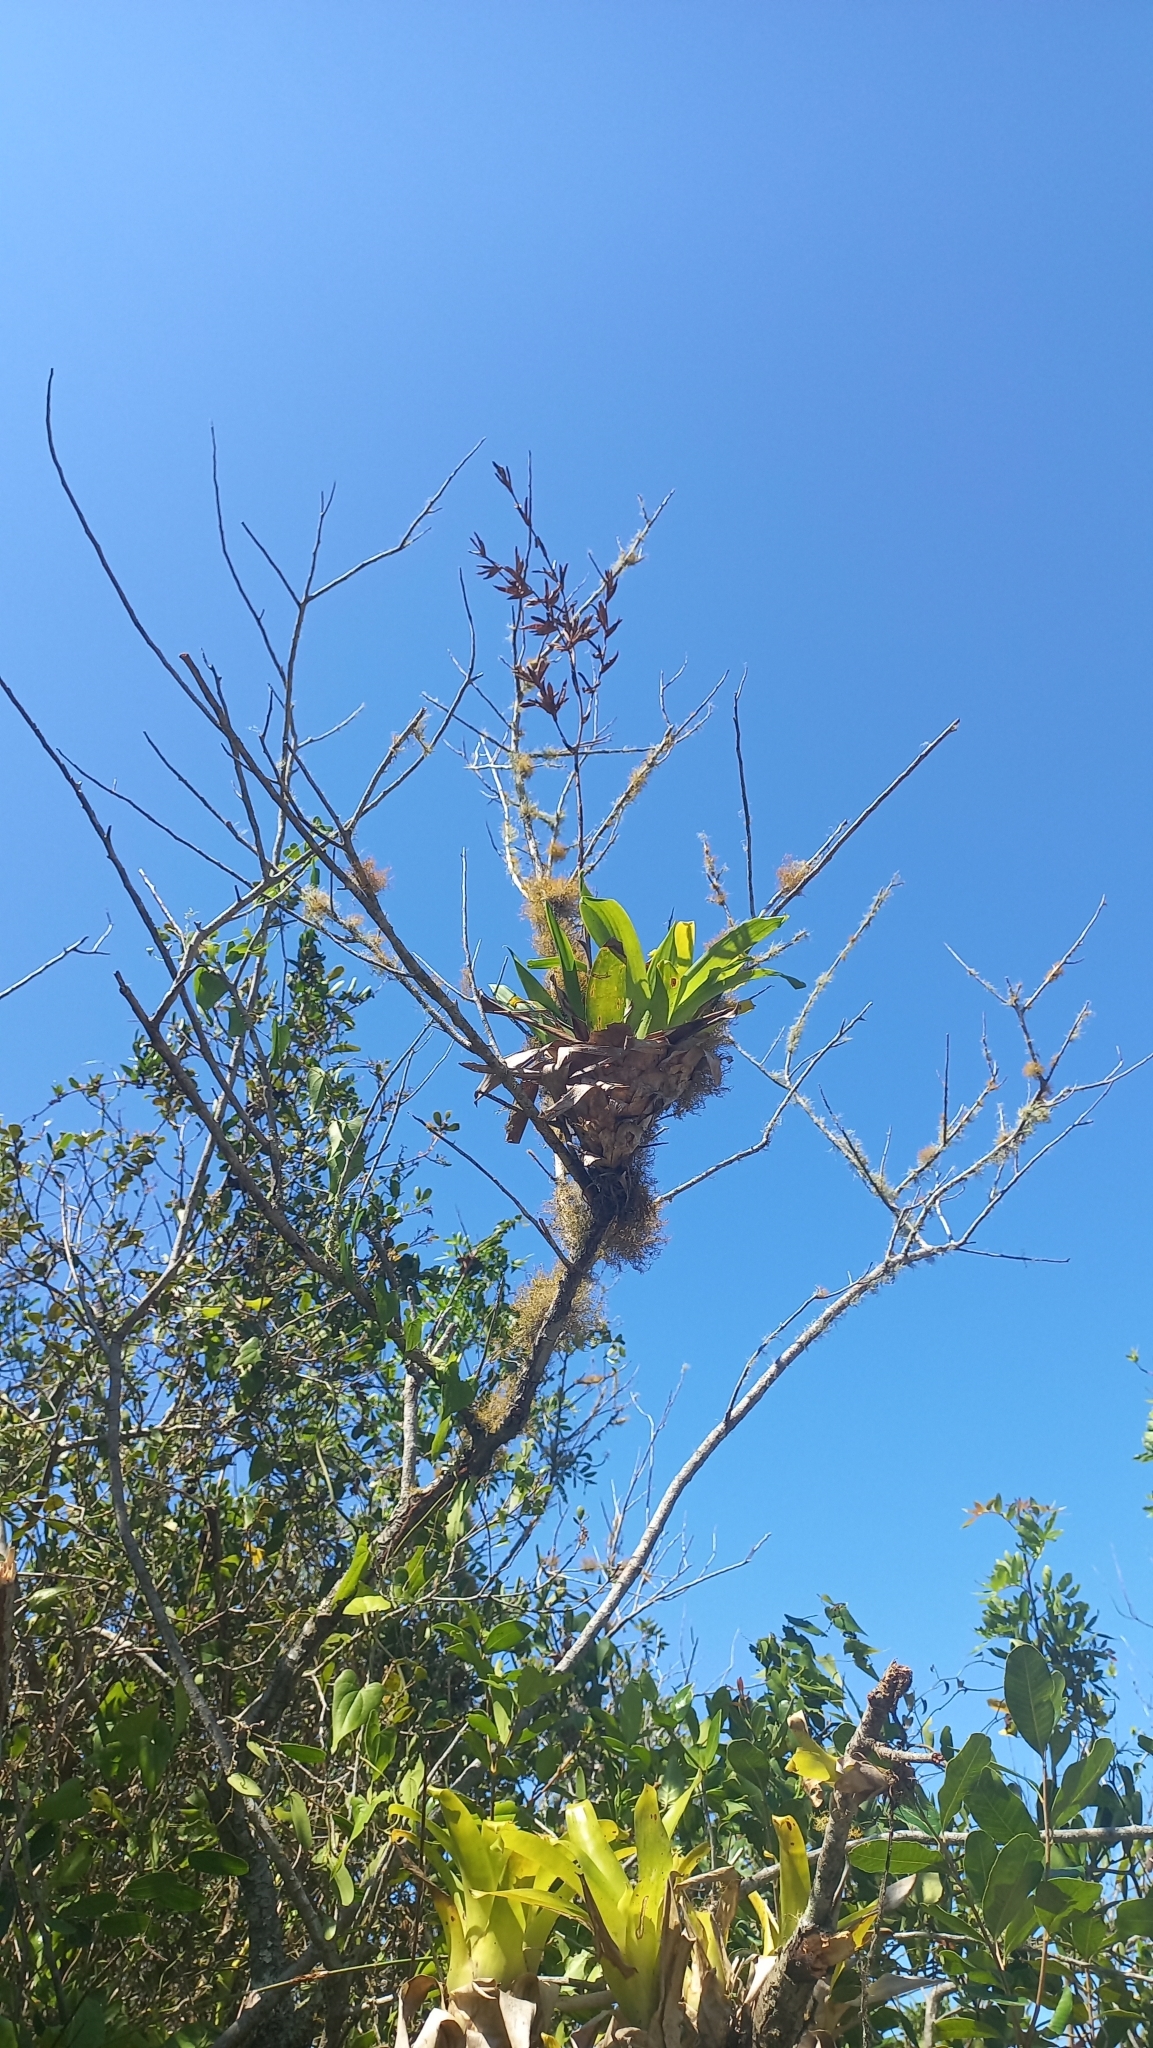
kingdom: Plantae
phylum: Tracheophyta
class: Liliopsida
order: Poales
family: Bromeliaceae
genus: Vriesea
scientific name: Vriesea rubroviridis
